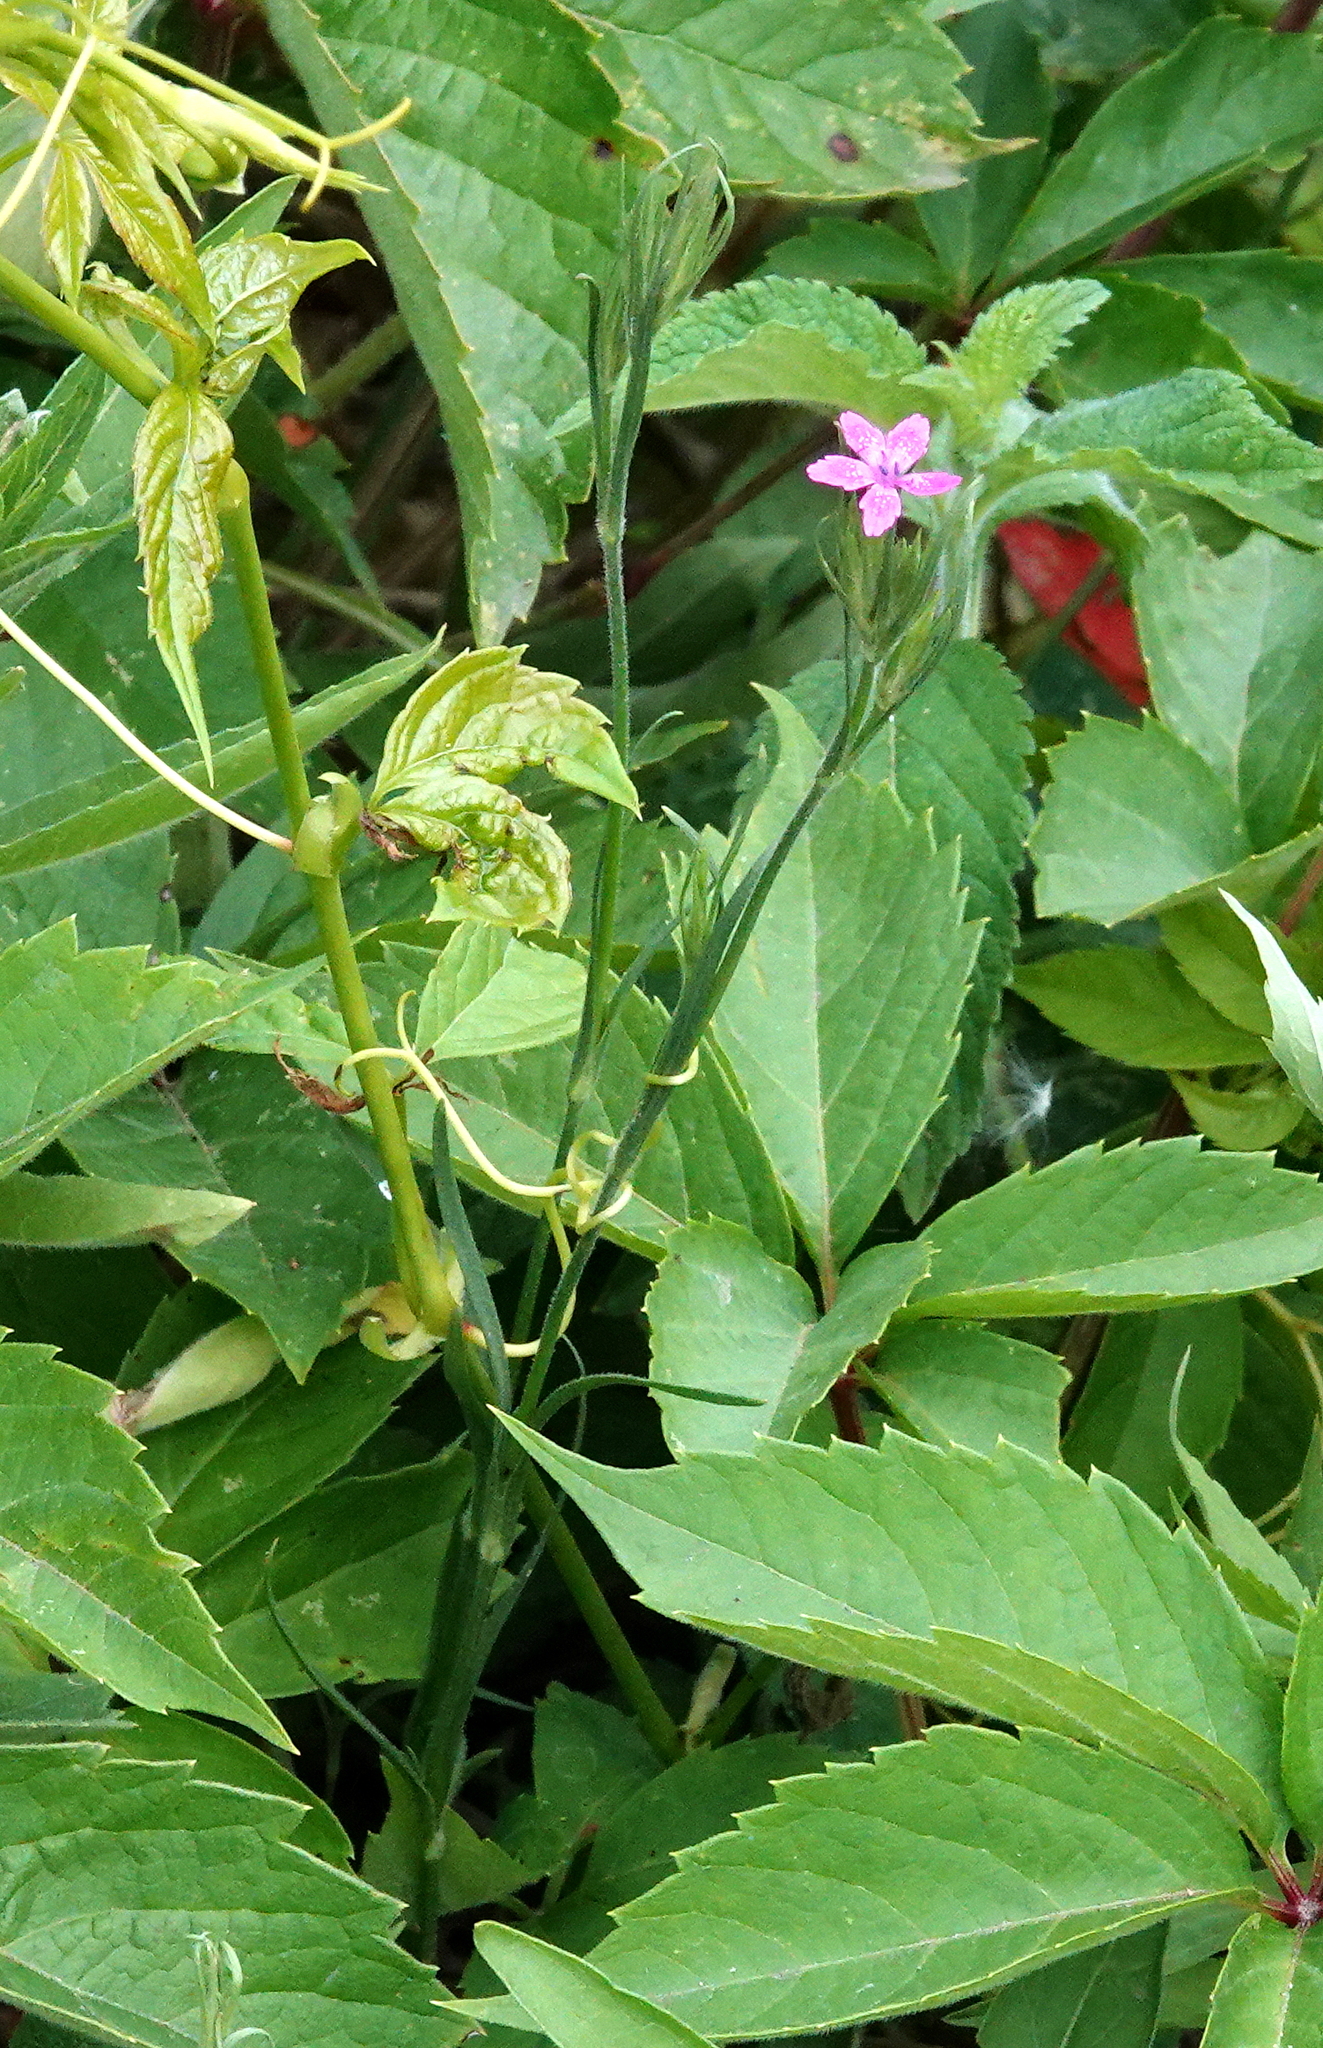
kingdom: Plantae
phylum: Tracheophyta
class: Magnoliopsida
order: Caryophyllales
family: Caryophyllaceae
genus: Dianthus
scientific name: Dianthus armeria
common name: Deptford pink
